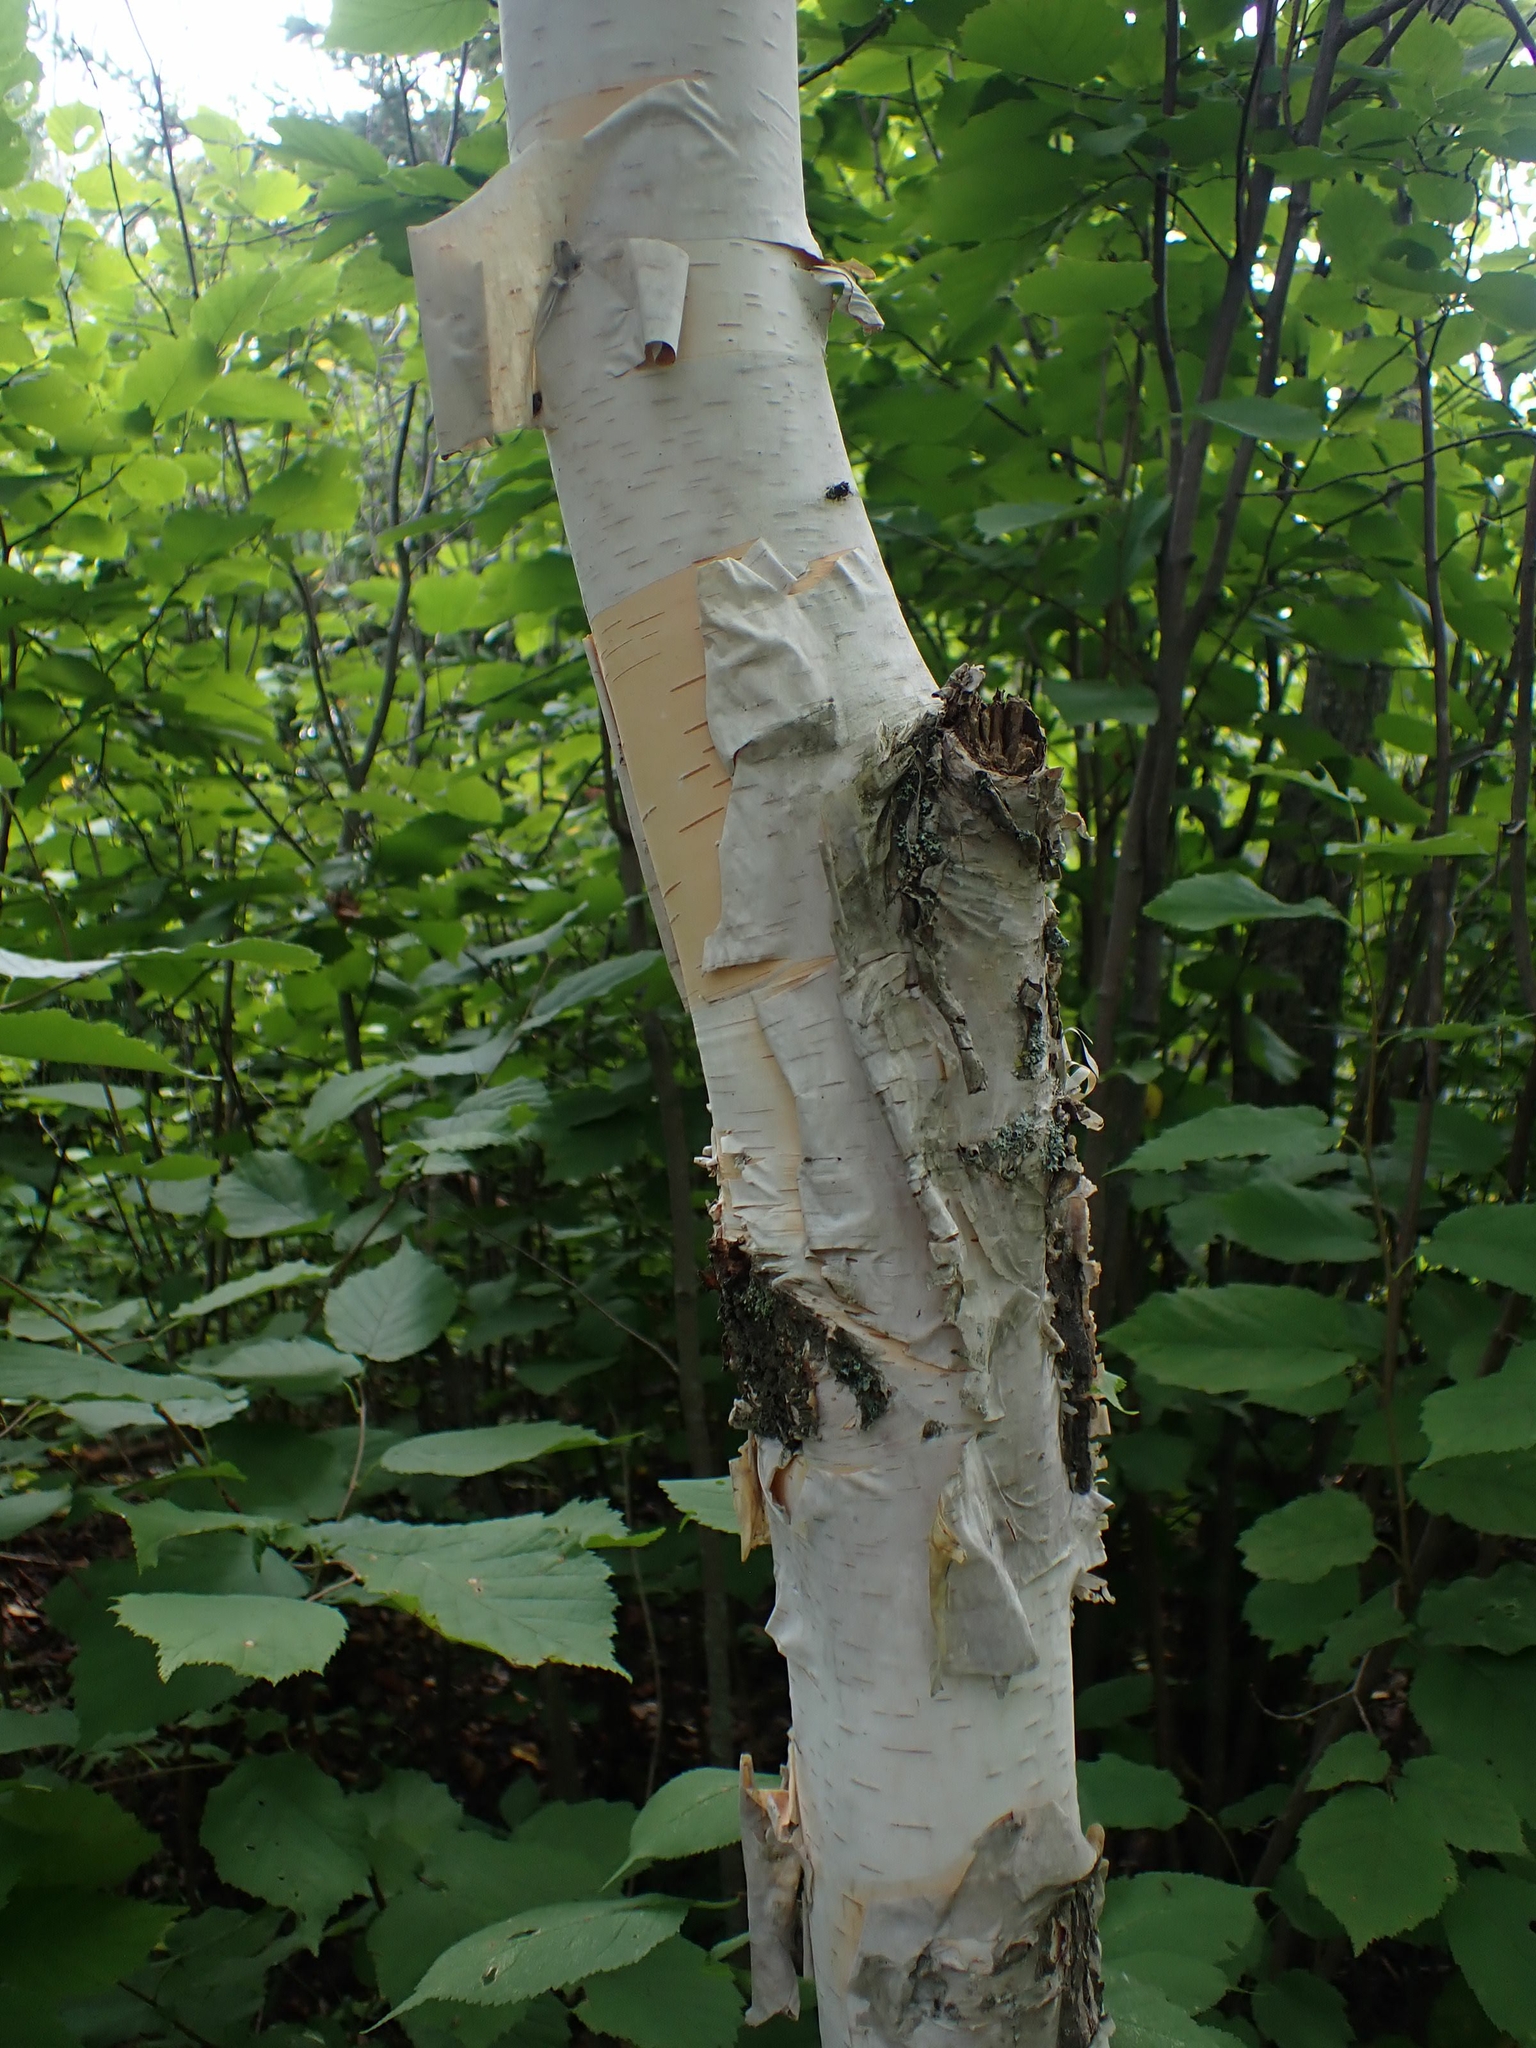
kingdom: Plantae
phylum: Tracheophyta
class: Magnoliopsida
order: Fagales
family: Betulaceae
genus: Betula
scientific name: Betula papyrifera
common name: Paper birch
